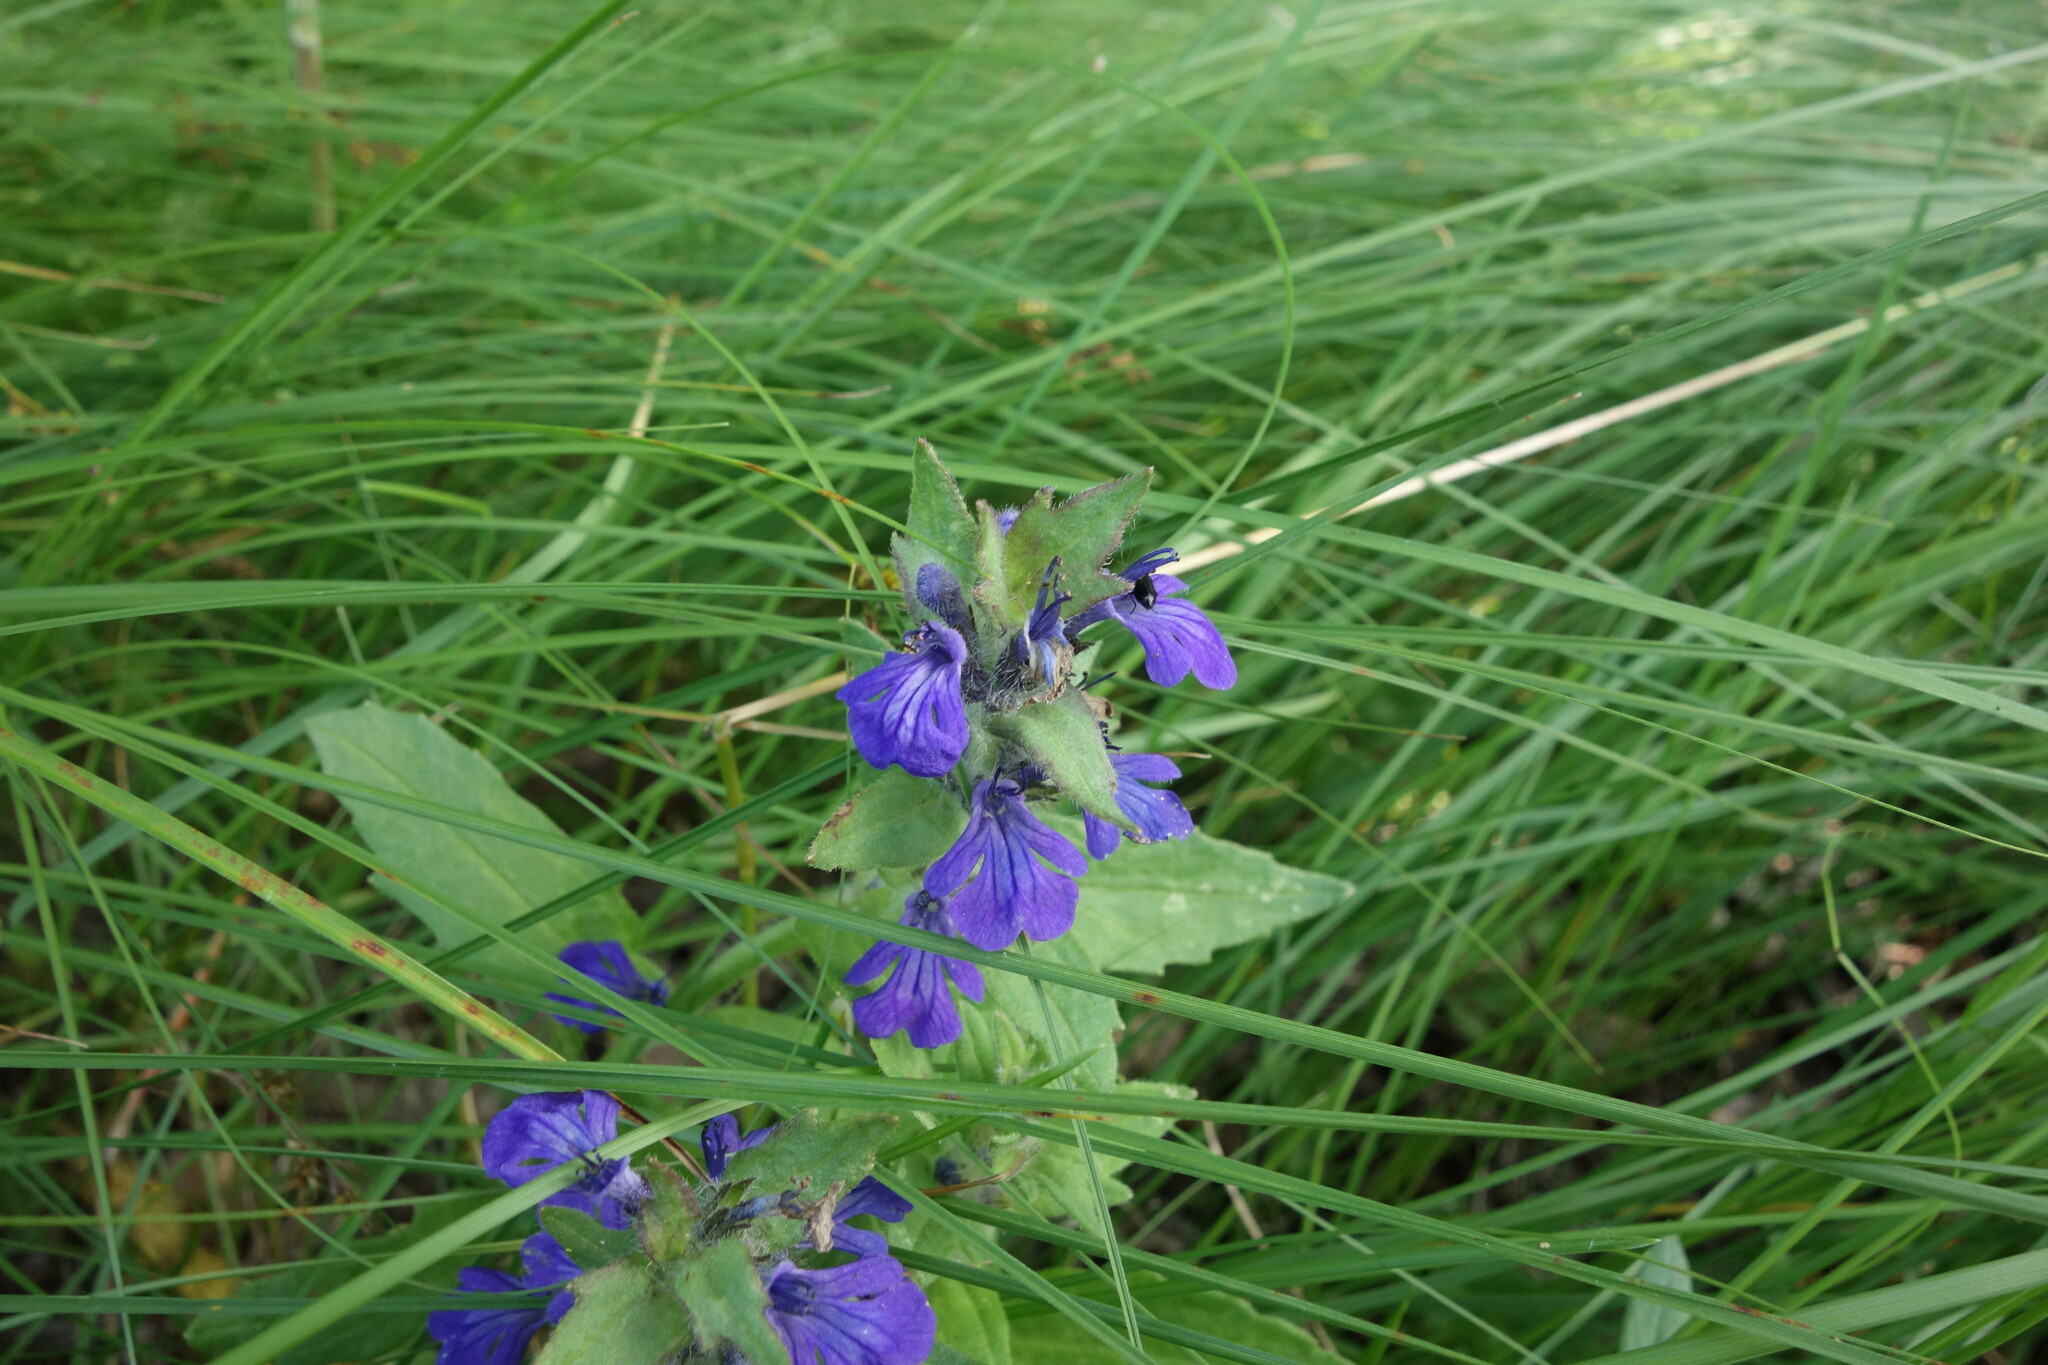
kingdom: Plantae
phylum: Tracheophyta
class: Magnoliopsida
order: Lamiales
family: Lamiaceae
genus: Ajuga
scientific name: Ajuga genevensis
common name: Blue bugle
